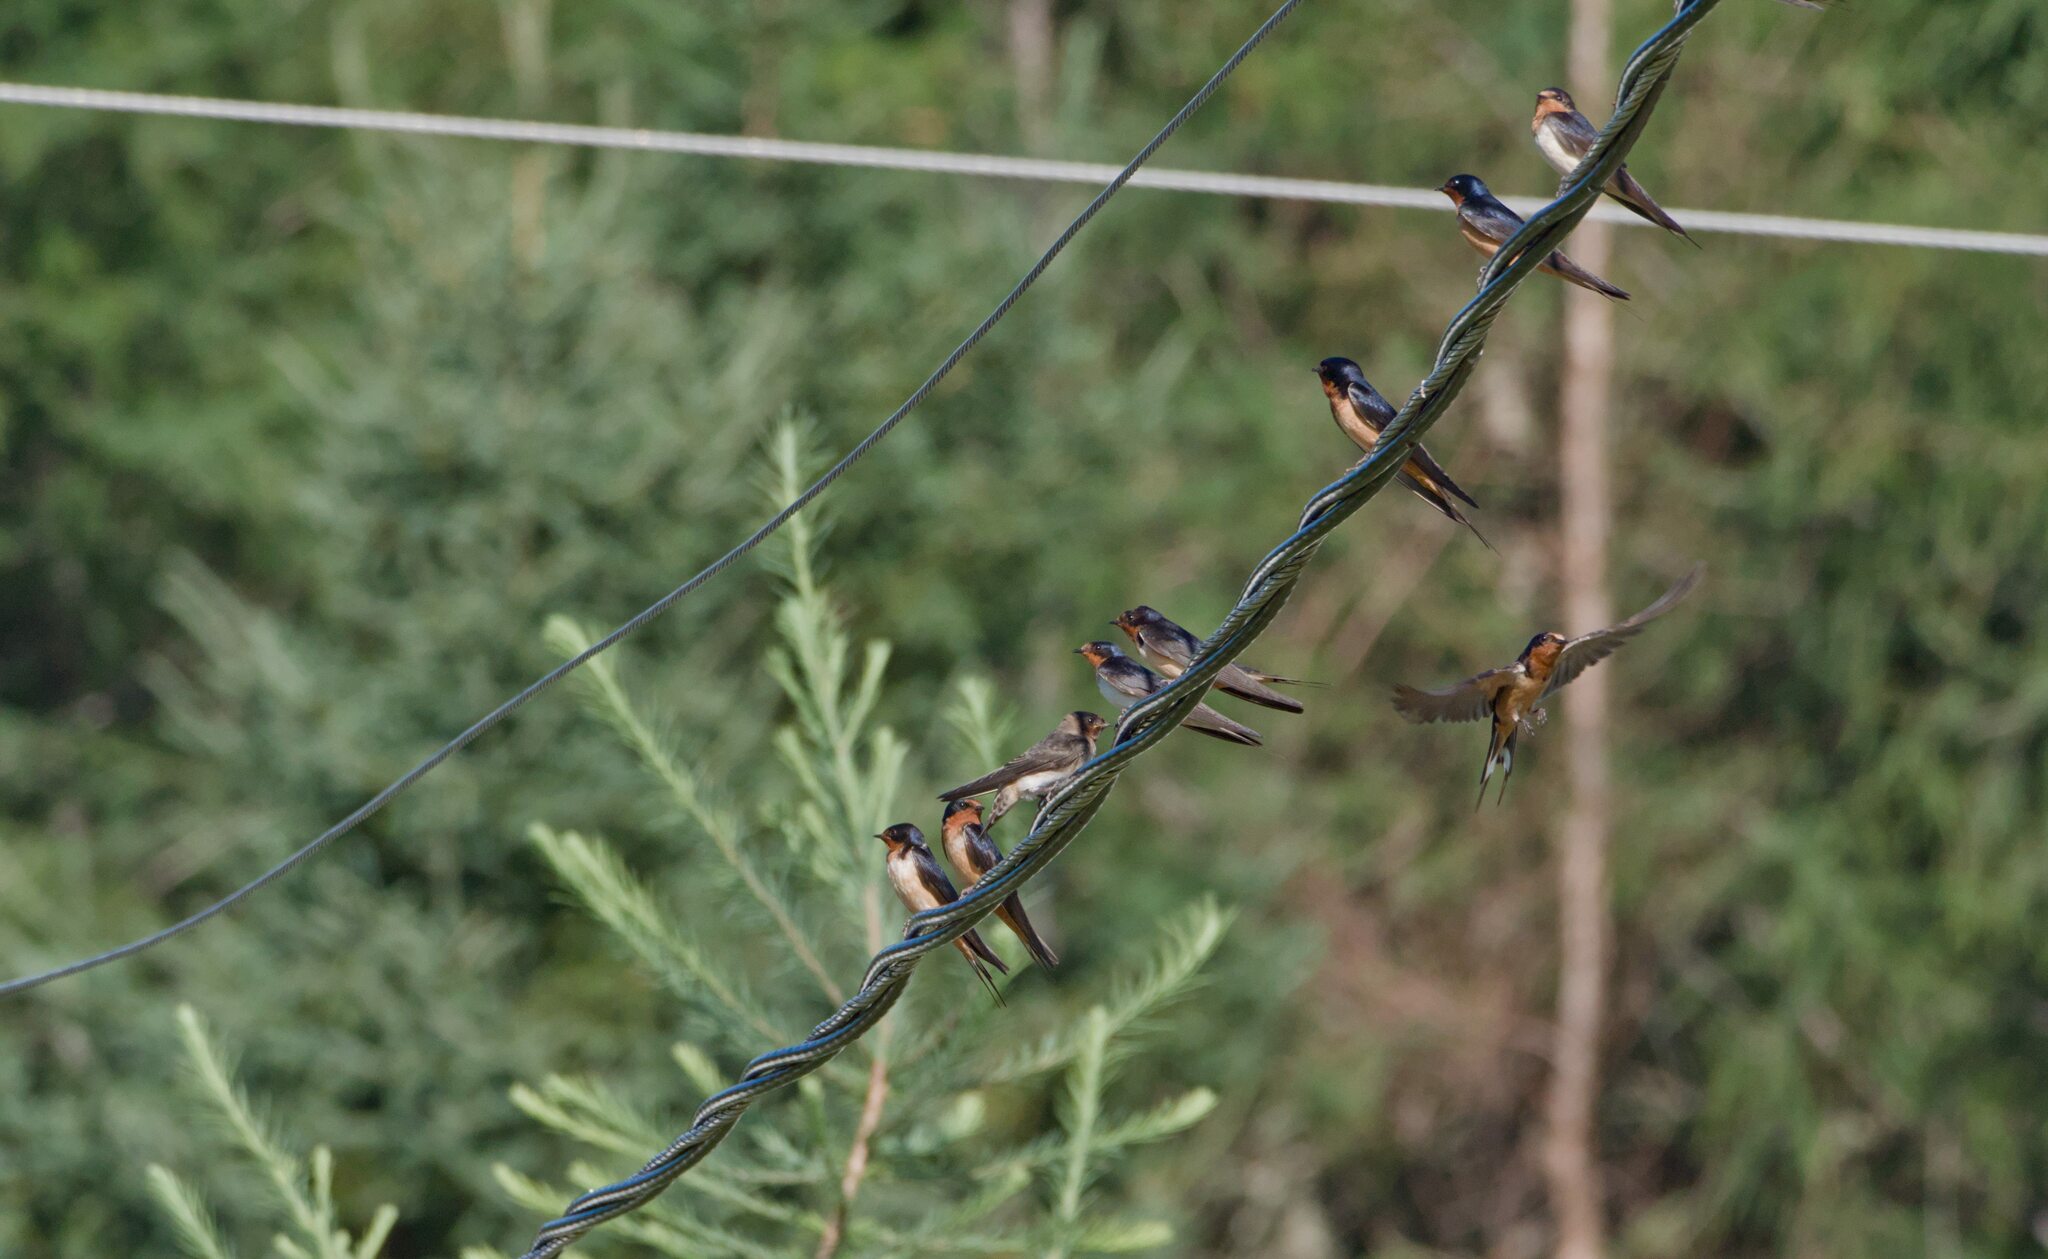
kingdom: Animalia
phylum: Chordata
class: Aves
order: Passeriformes
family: Hirundinidae
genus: Hirundo
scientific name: Hirundo rustica
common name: Barn swallow
